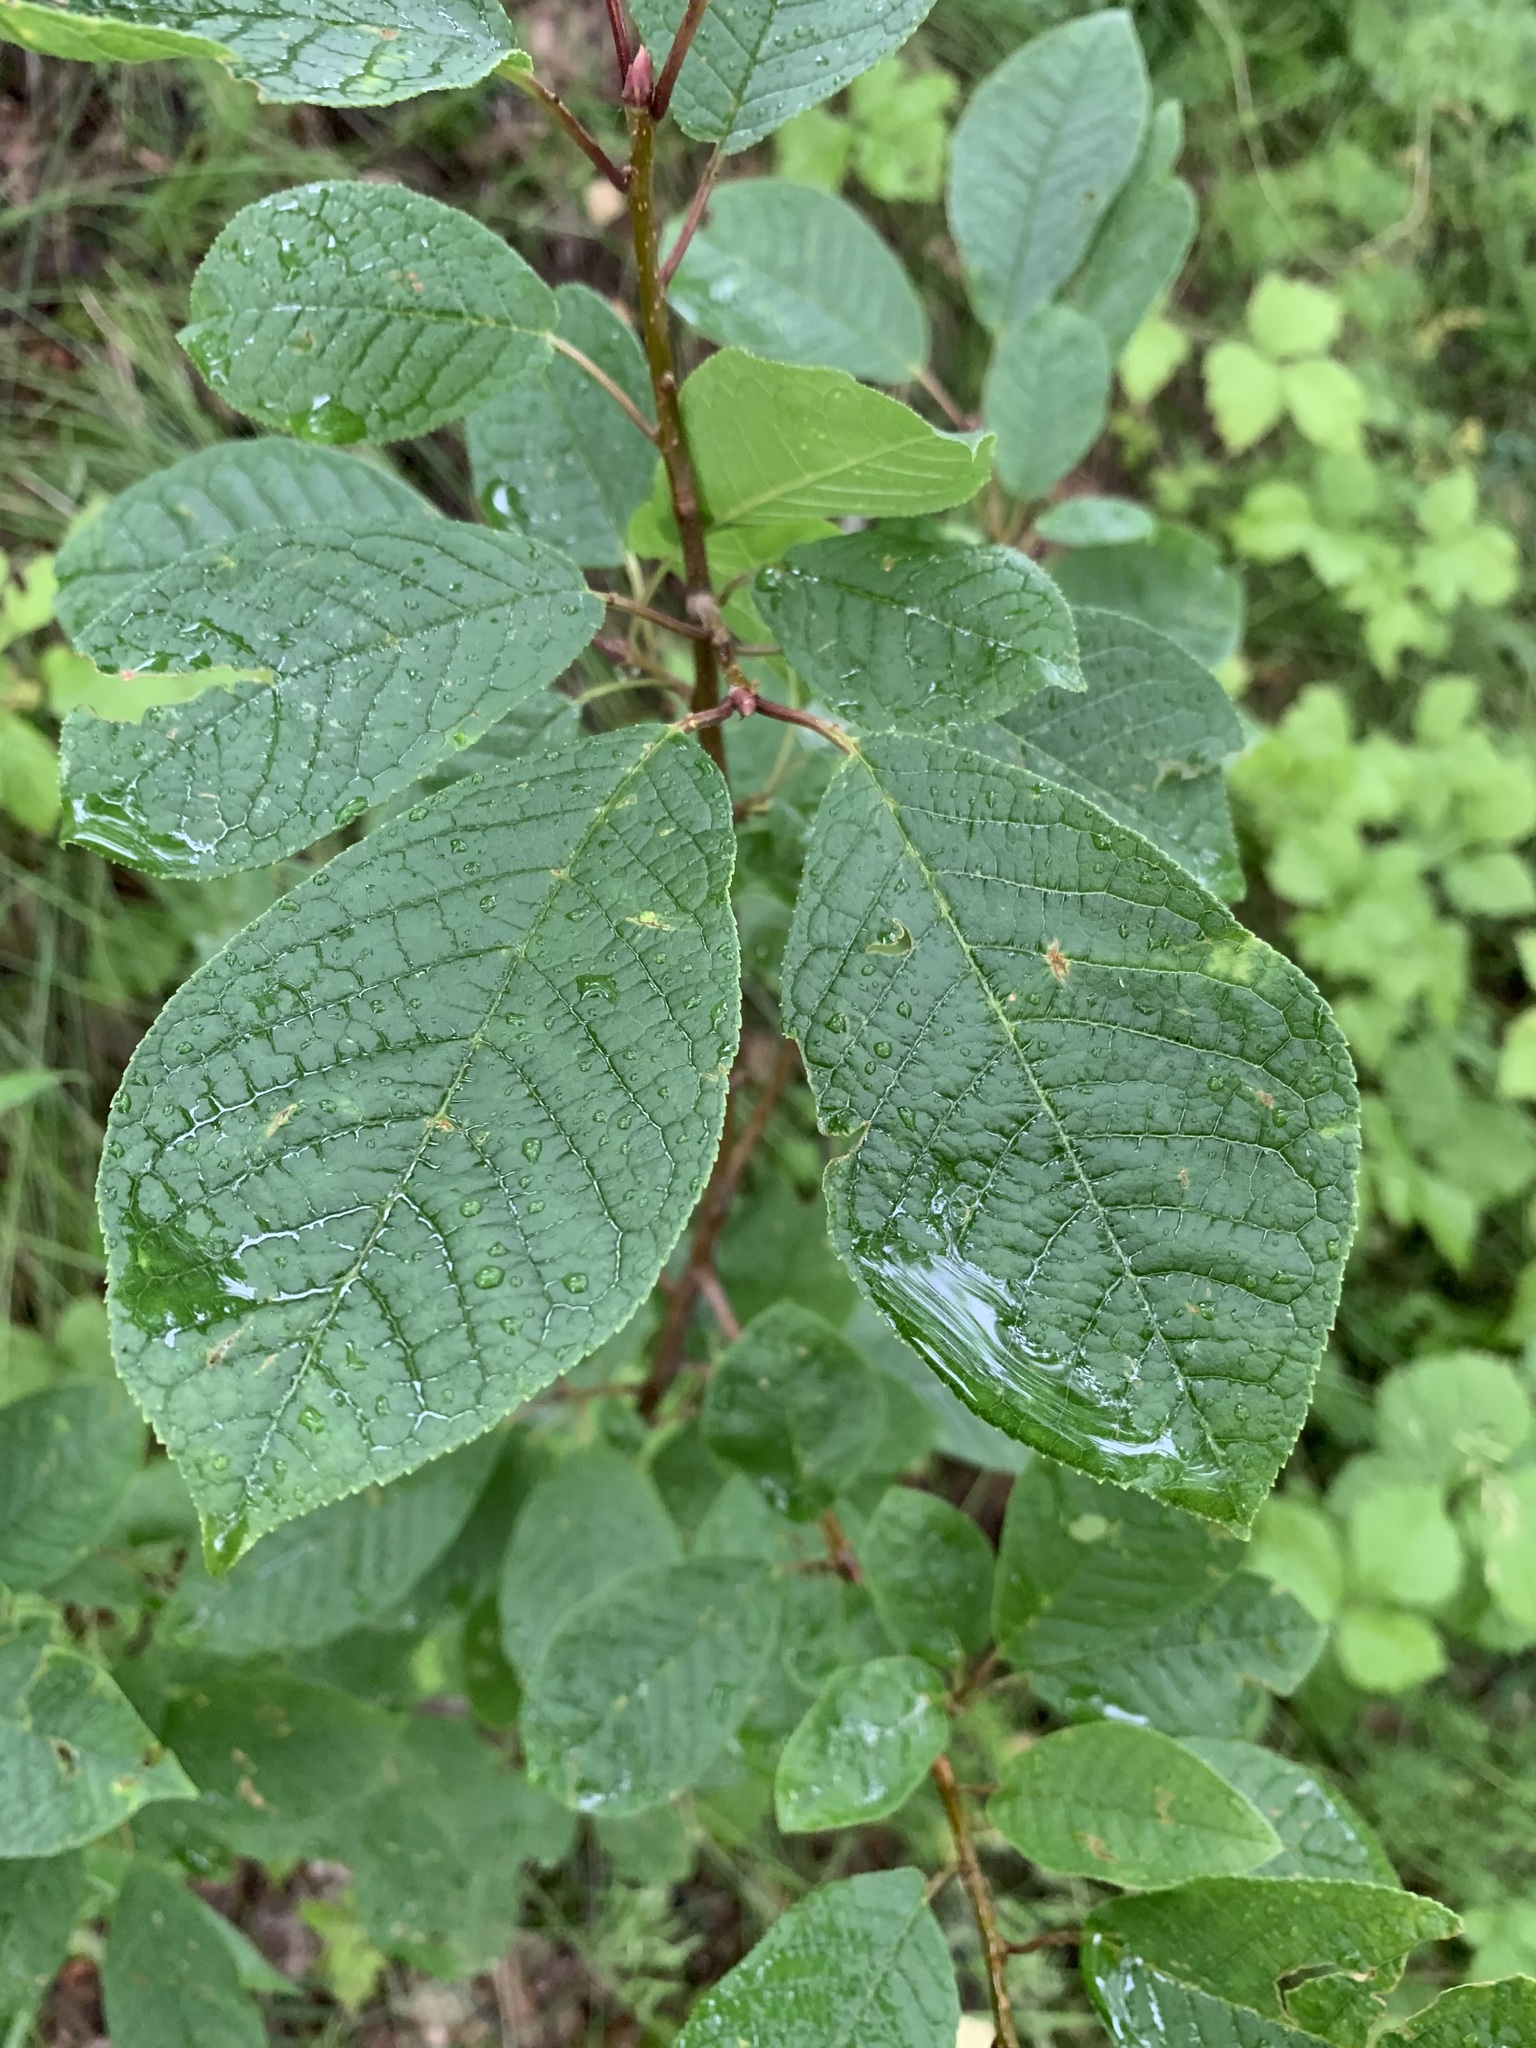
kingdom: Plantae
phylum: Tracheophyta
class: Magnoliopsida
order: Rosales
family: Rosaceae
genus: Prunus
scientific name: Prunus padus
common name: Bird cherry
